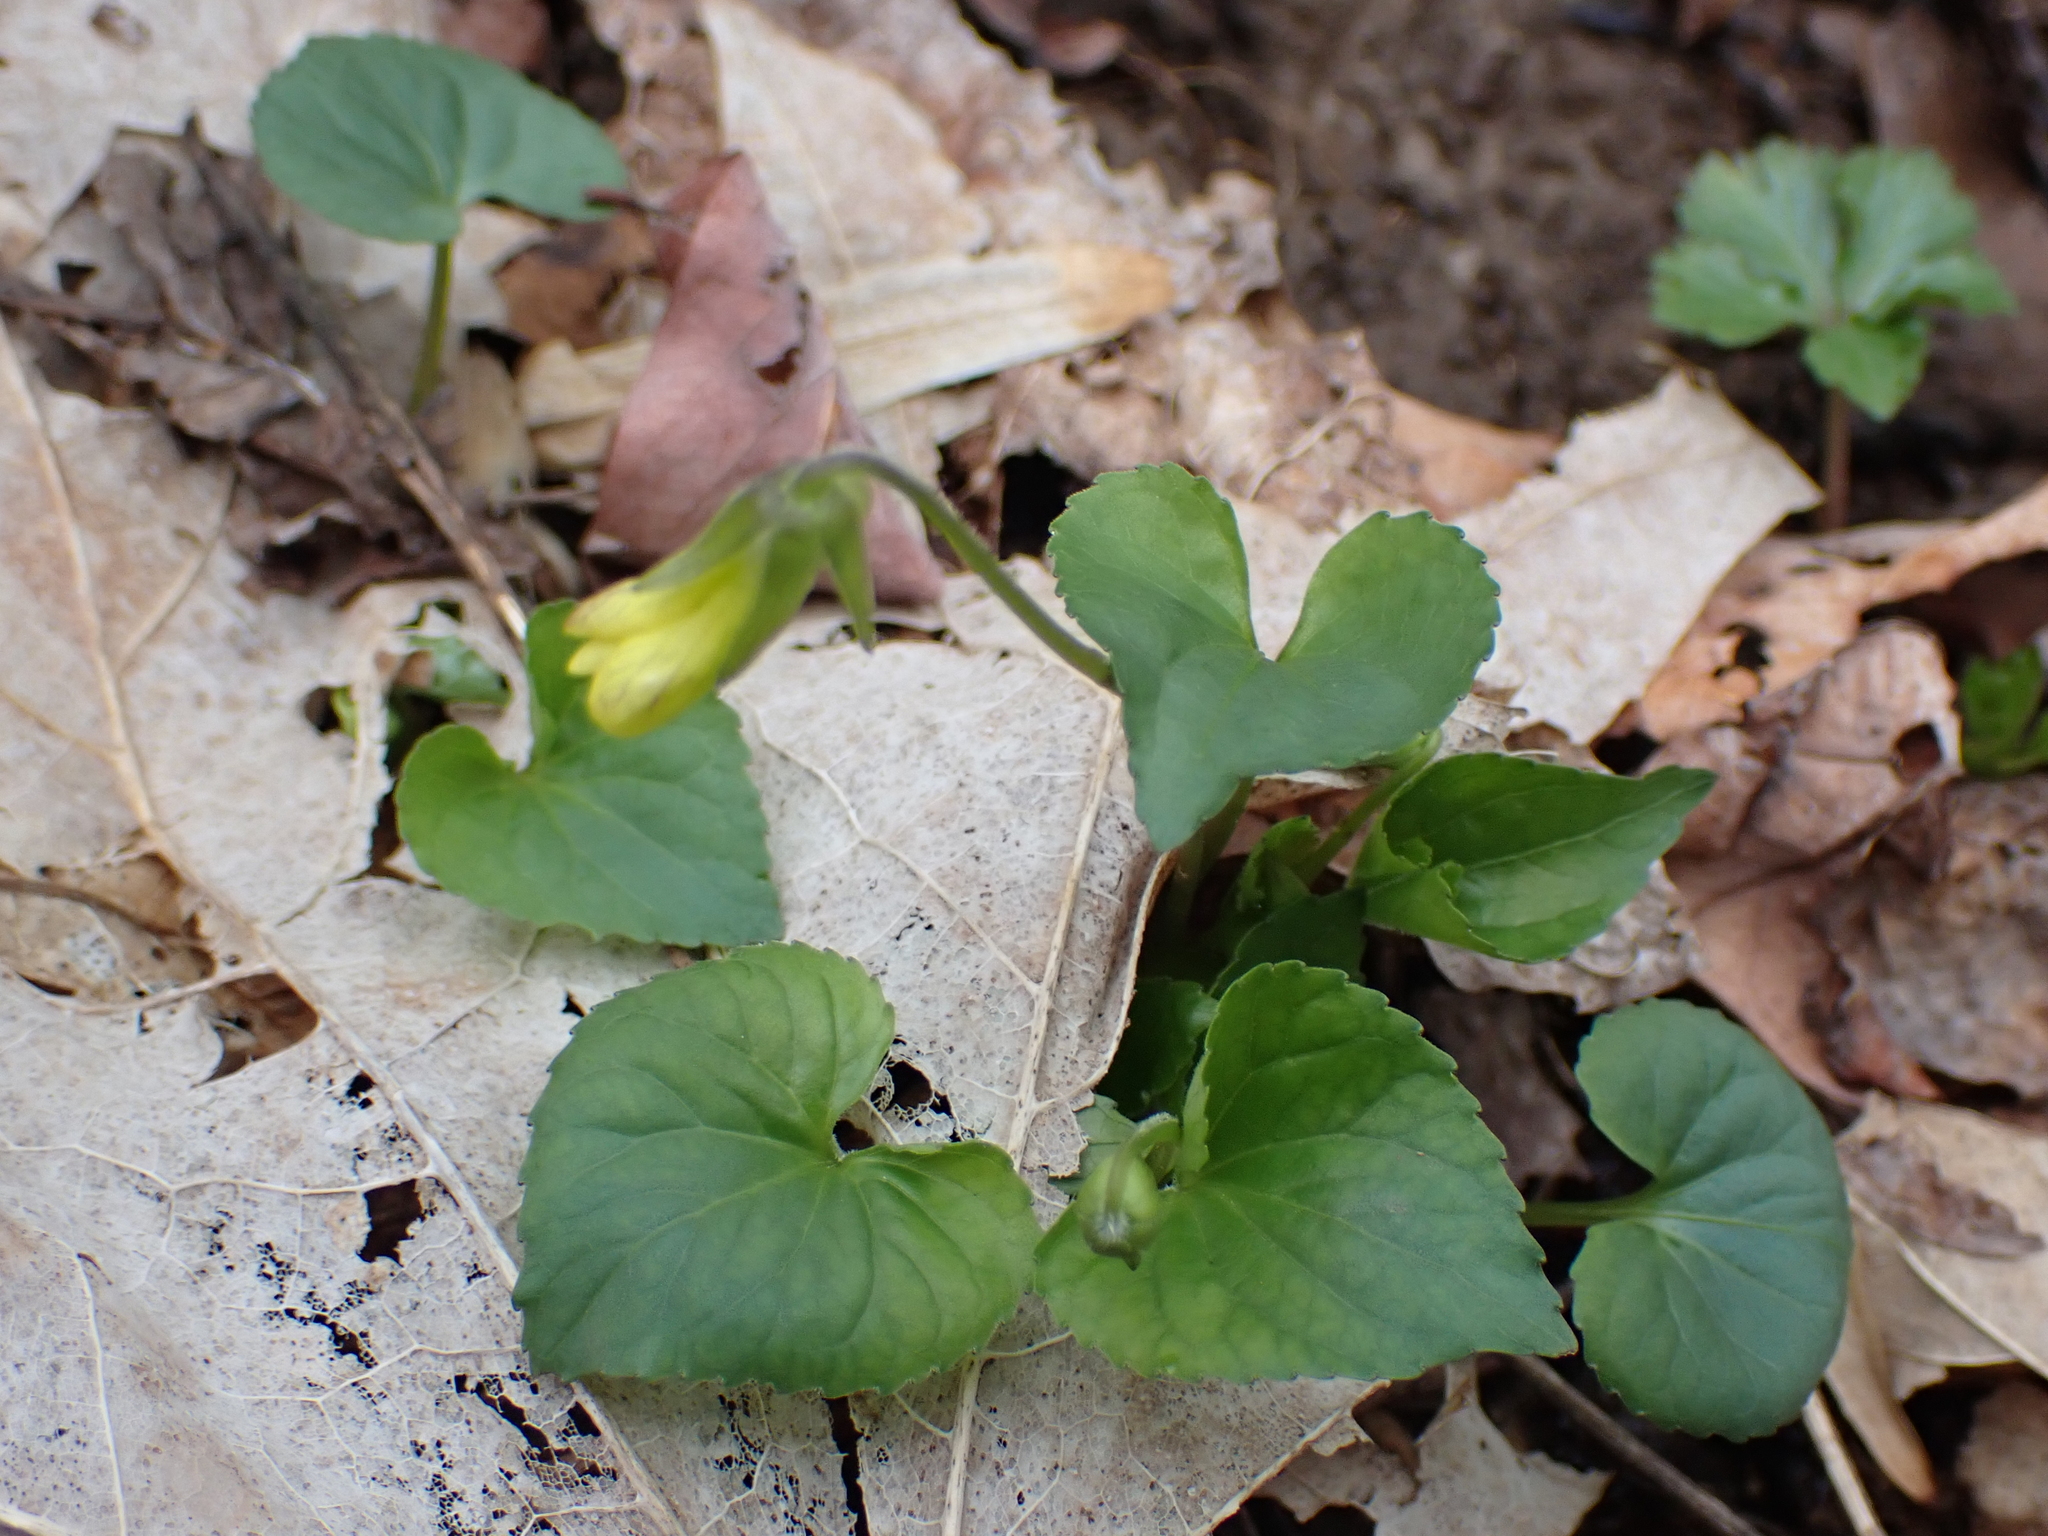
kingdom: Plantae
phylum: Tracheophyta
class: Magnoliopsida
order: Malpighiales
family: Violaceae
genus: Viola
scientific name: Viola eriocarpa
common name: Smooth yellow violet
